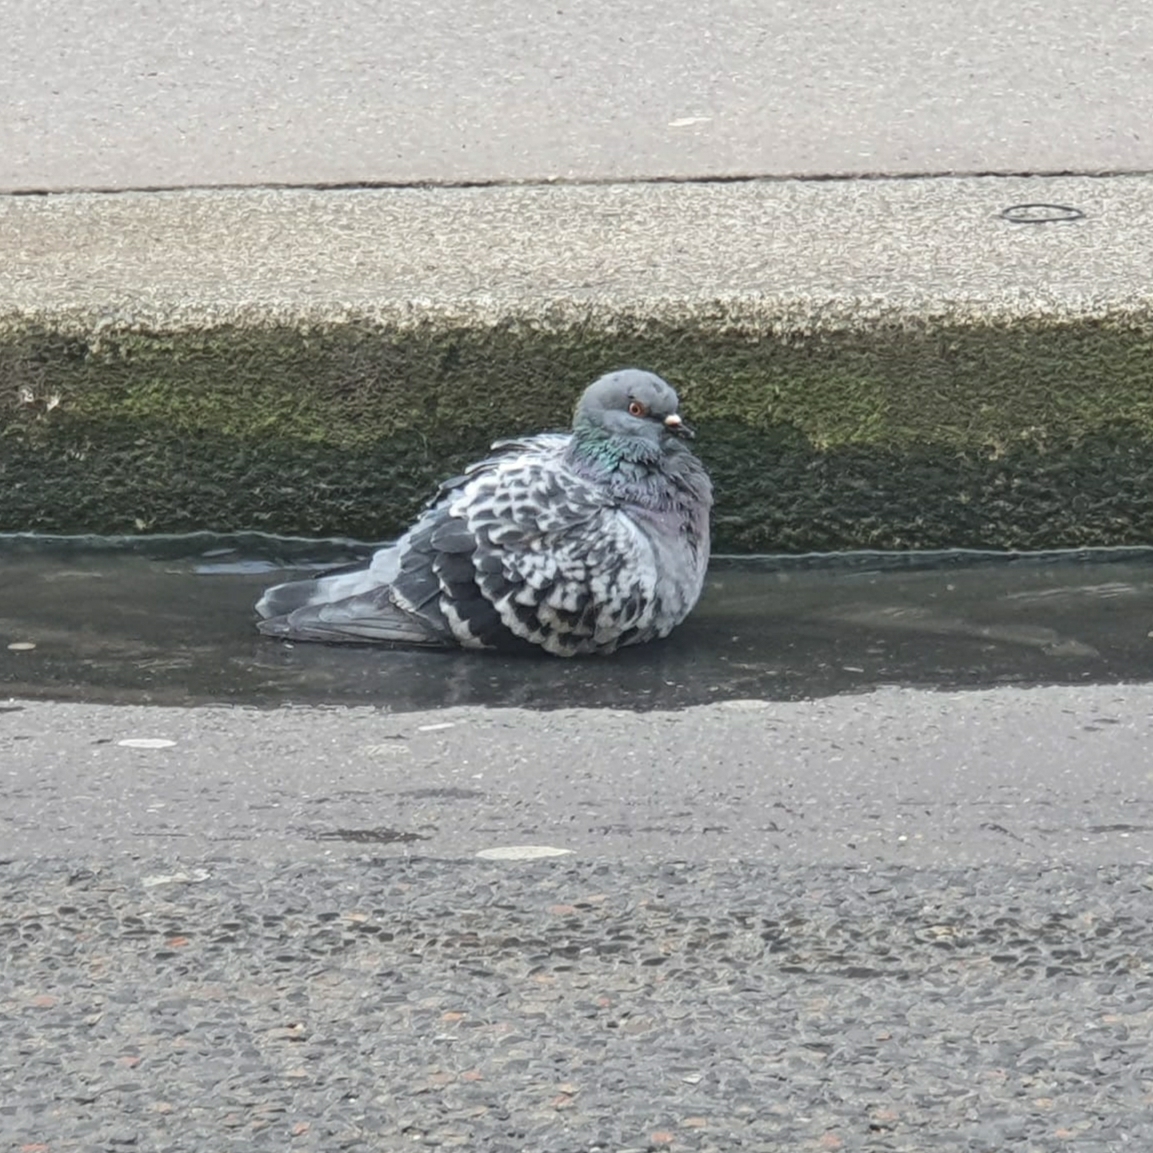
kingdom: Animalia
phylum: Chordata
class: Aves
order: Columbiformes
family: Columbidae
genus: Columba
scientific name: Columba livia
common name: Rock pigeon
